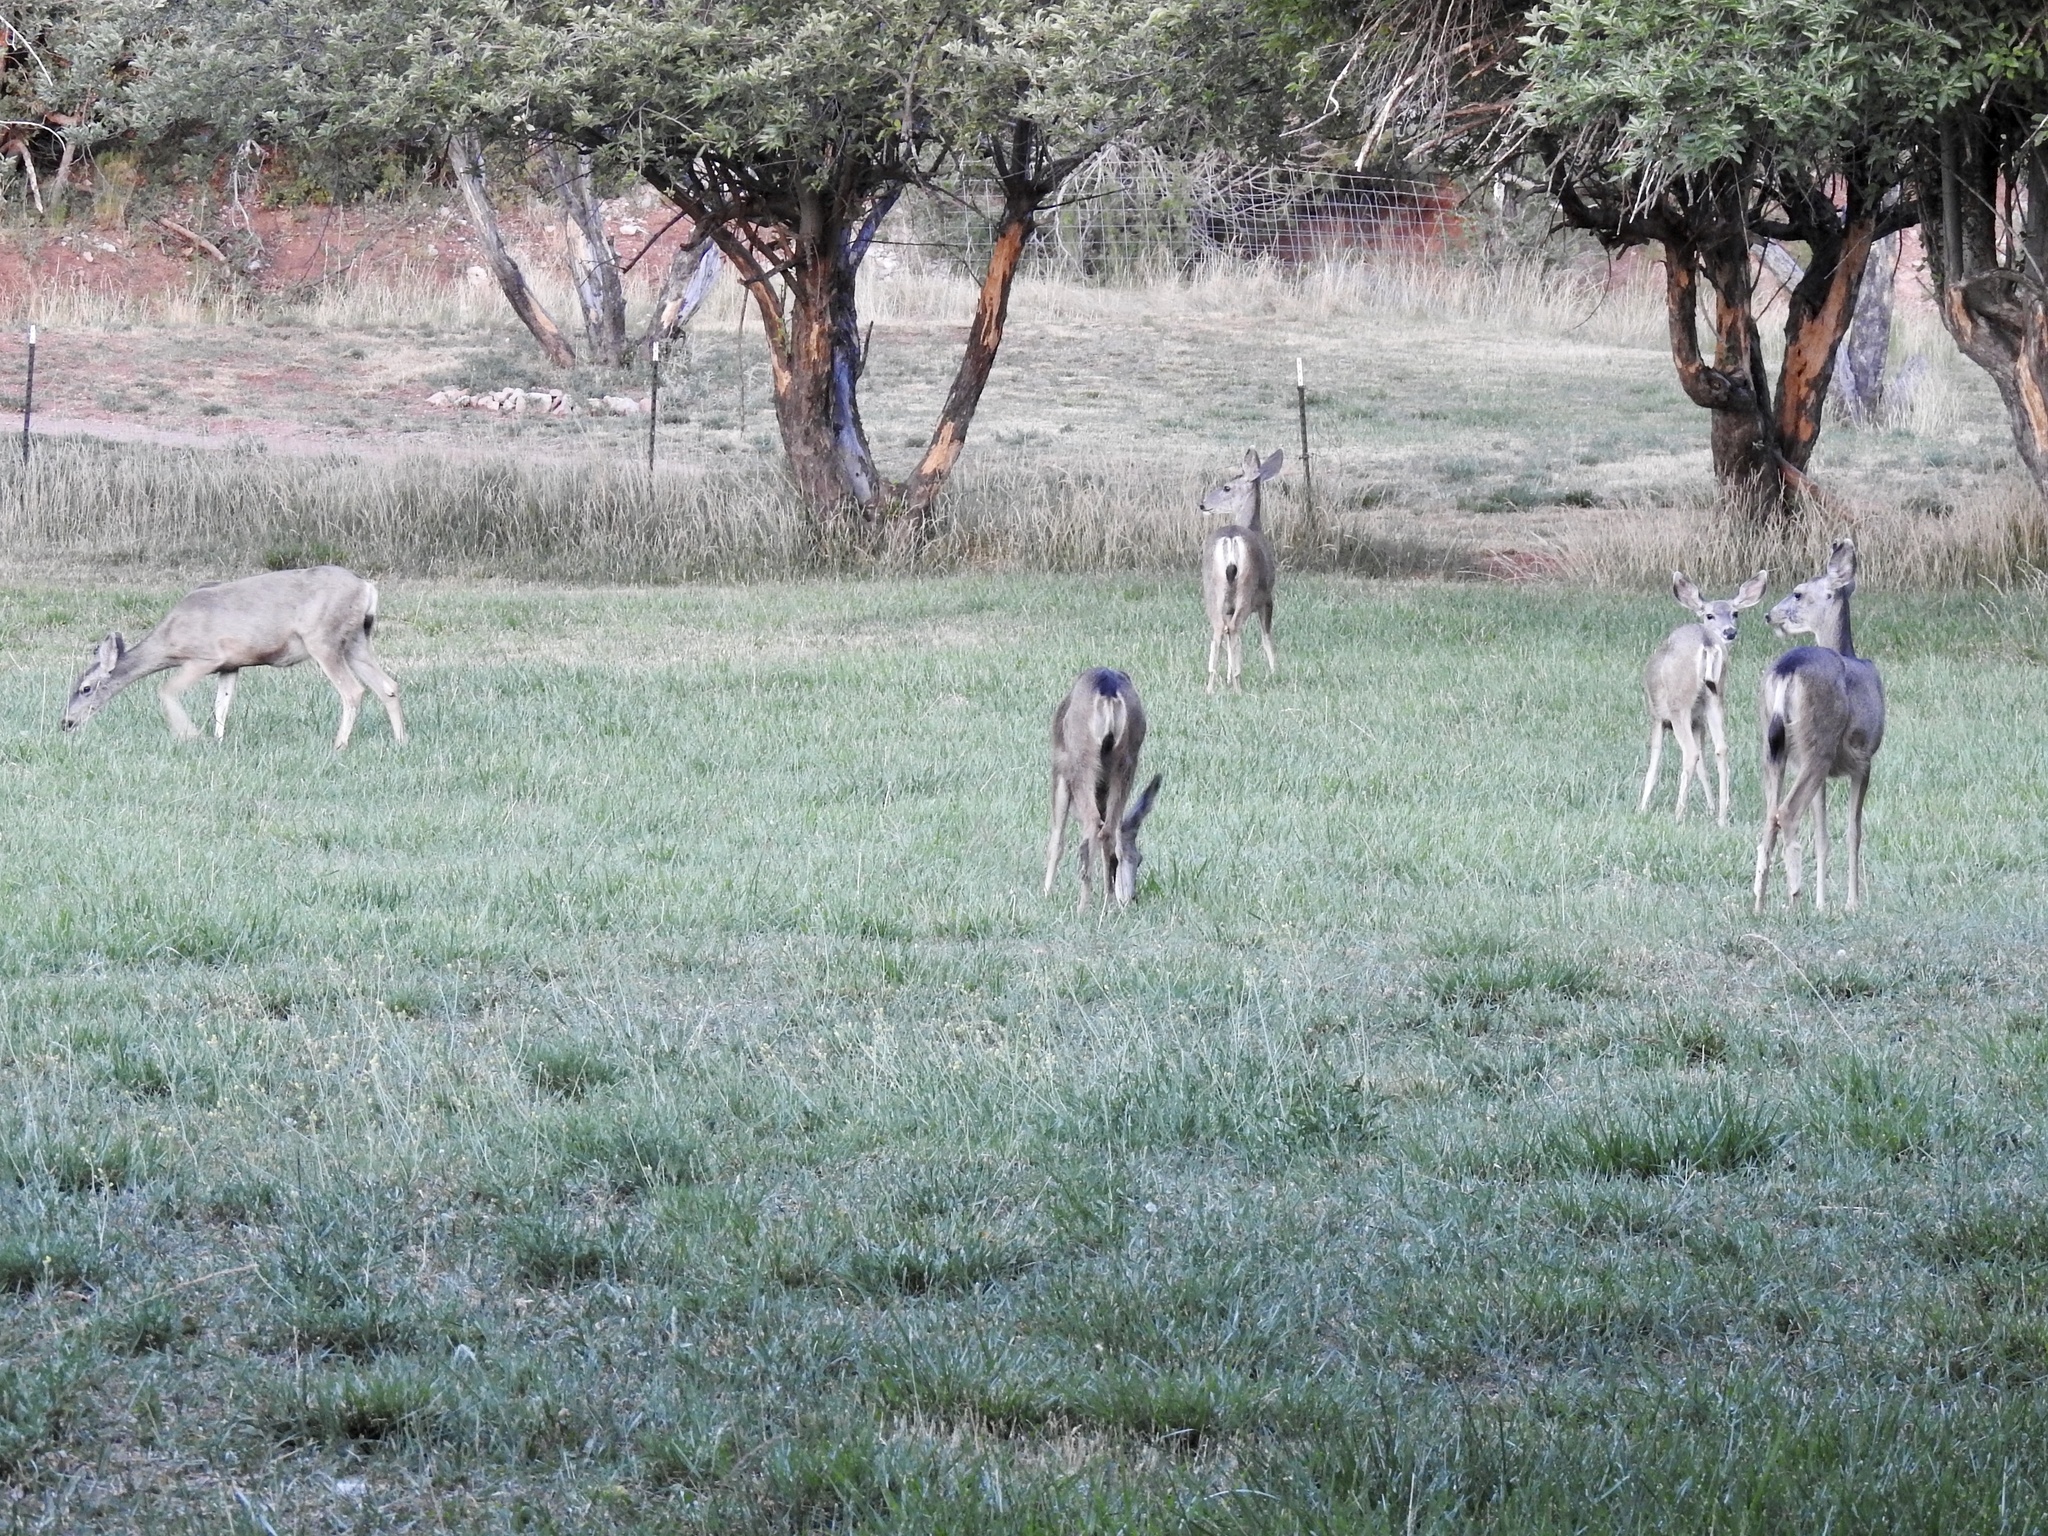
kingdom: Animalia
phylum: Chordata
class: Mammalia
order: Artiodactyla
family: Cervidae
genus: Odocoileus
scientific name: Odocoileus hemionus
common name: Mule deer
